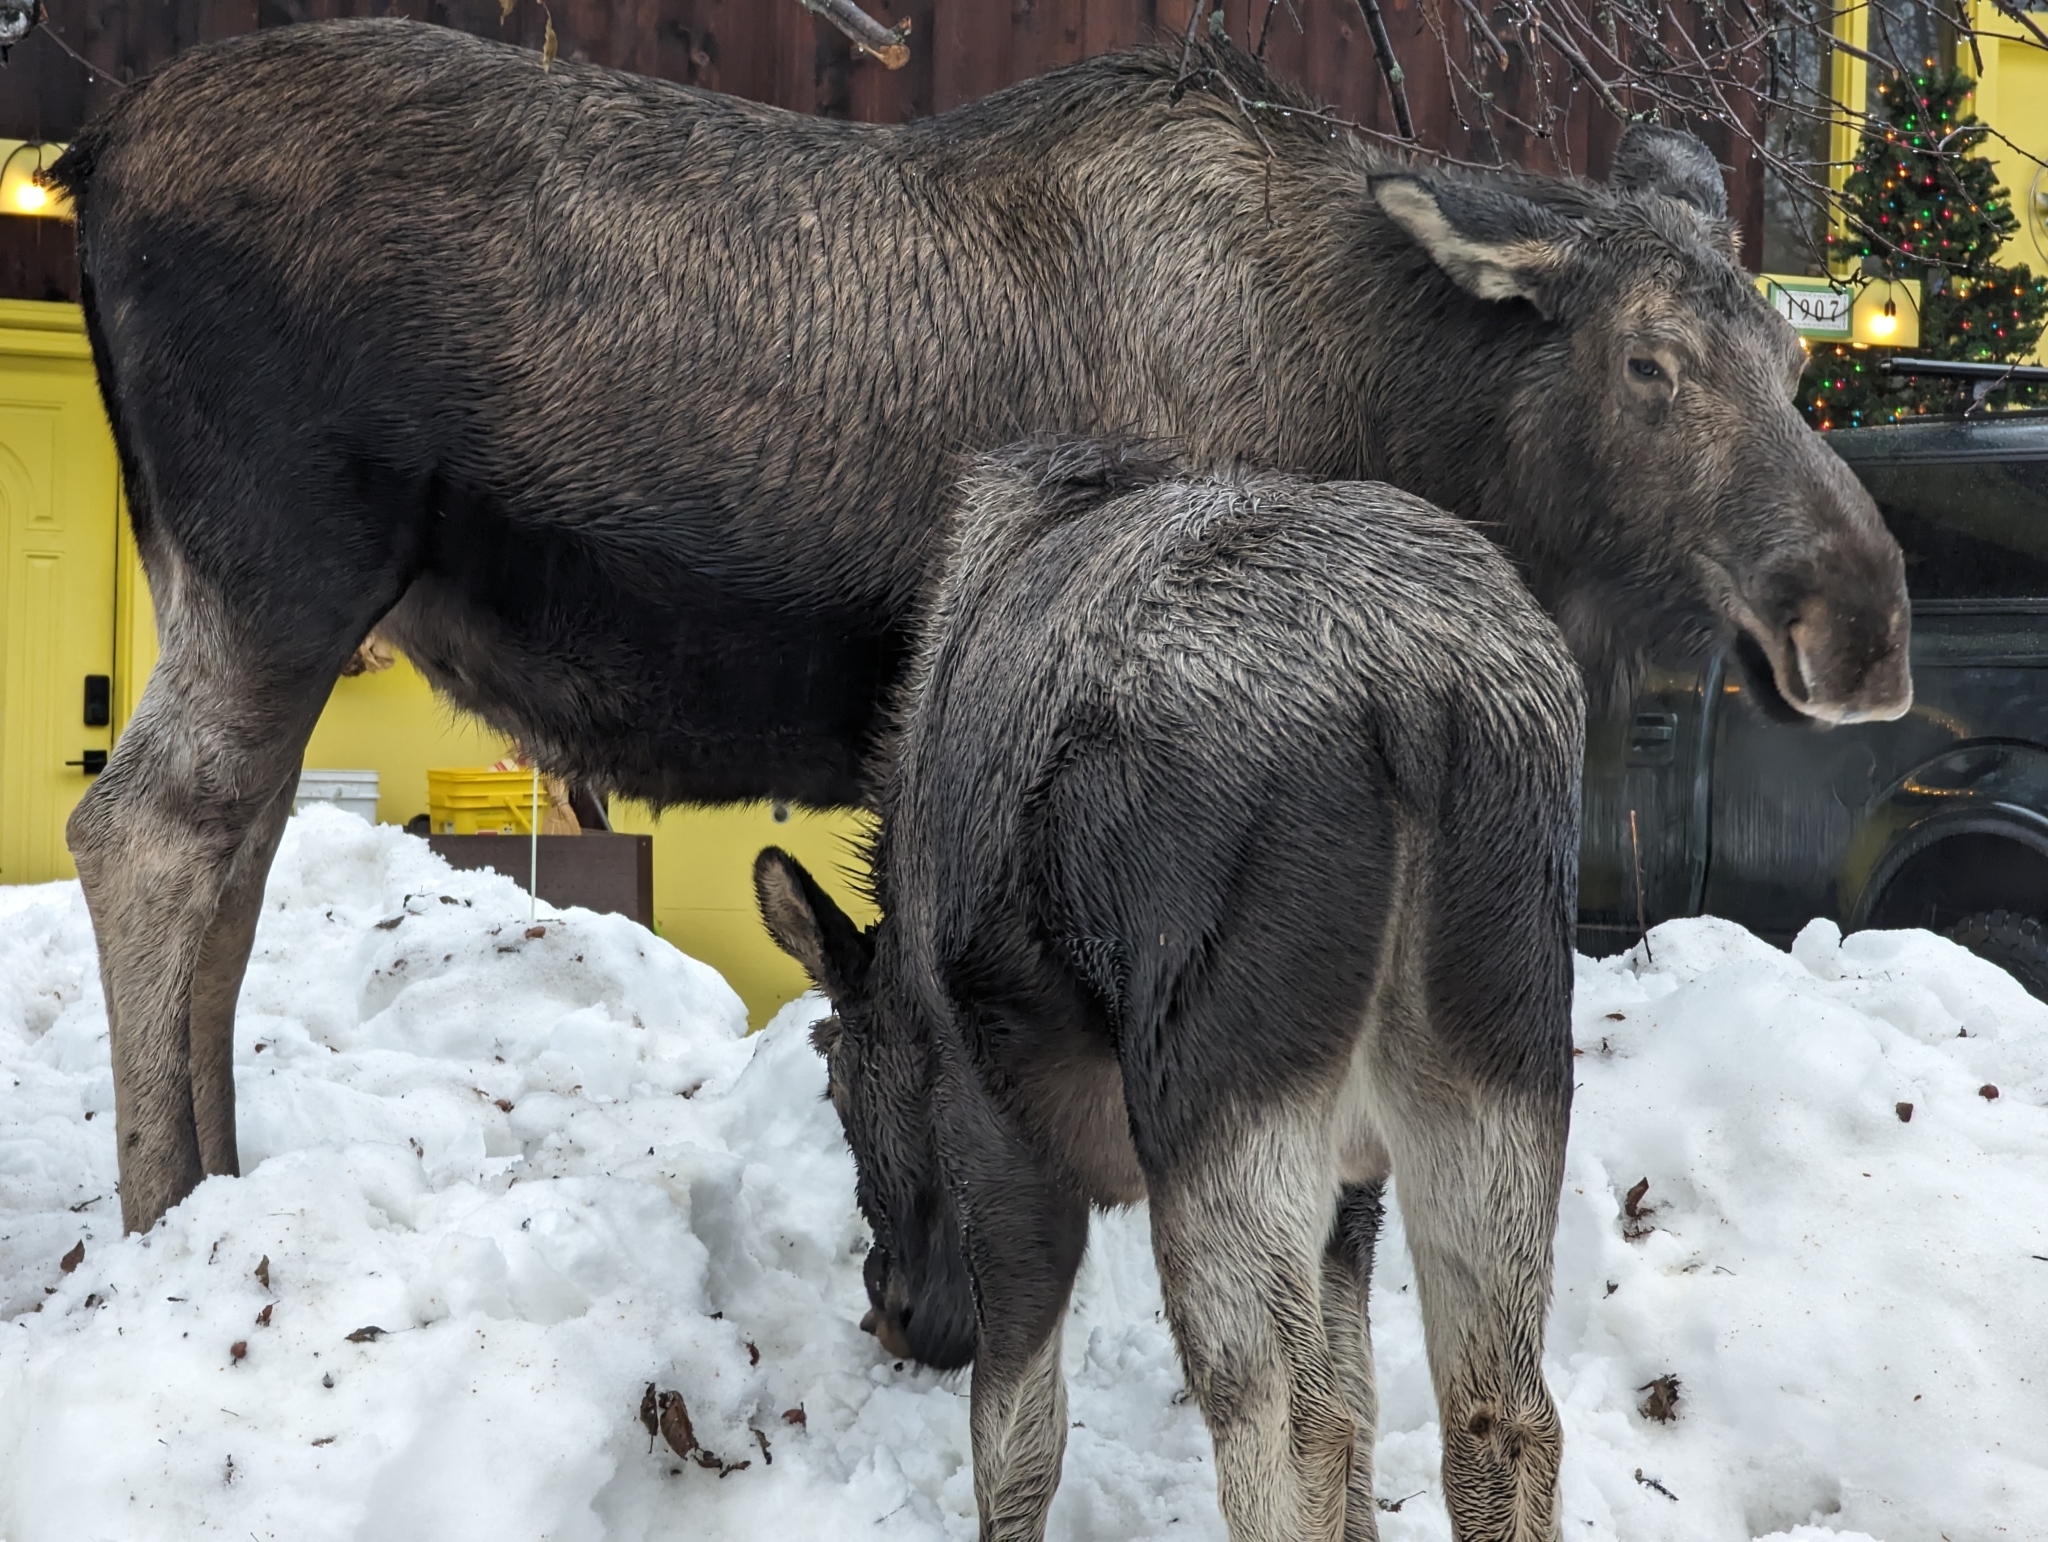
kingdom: Animalia
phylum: Chordata
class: Mammalia
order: Artiodactyla
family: Cervidae
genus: Alces
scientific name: Alces alces
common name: Moose
